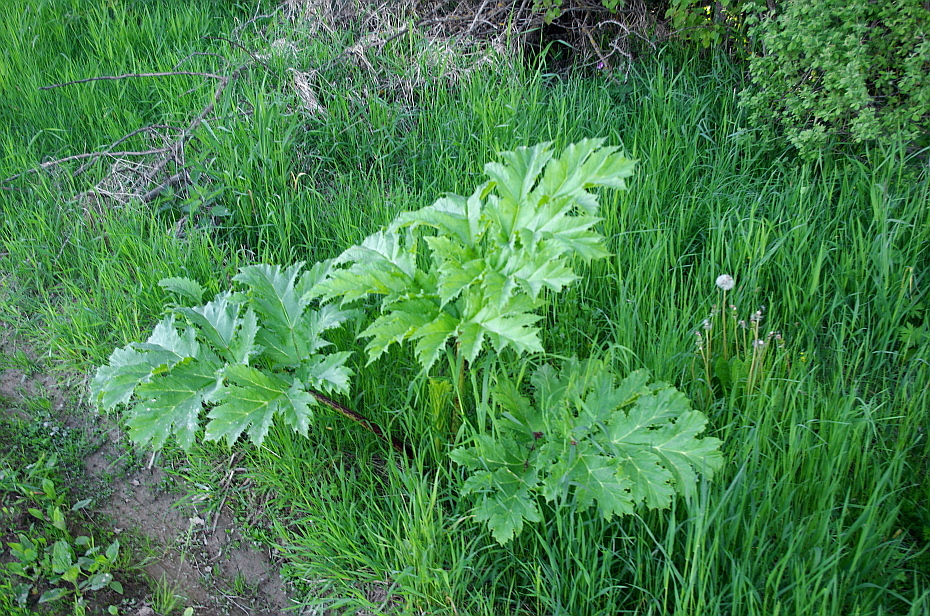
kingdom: Plantae
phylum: Tracheophyta
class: Magnoliopsida
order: Apiales
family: Apiaceae
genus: Heracleum
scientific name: Heracleum sosnowskyi
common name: Sosnowsky's hogweed
